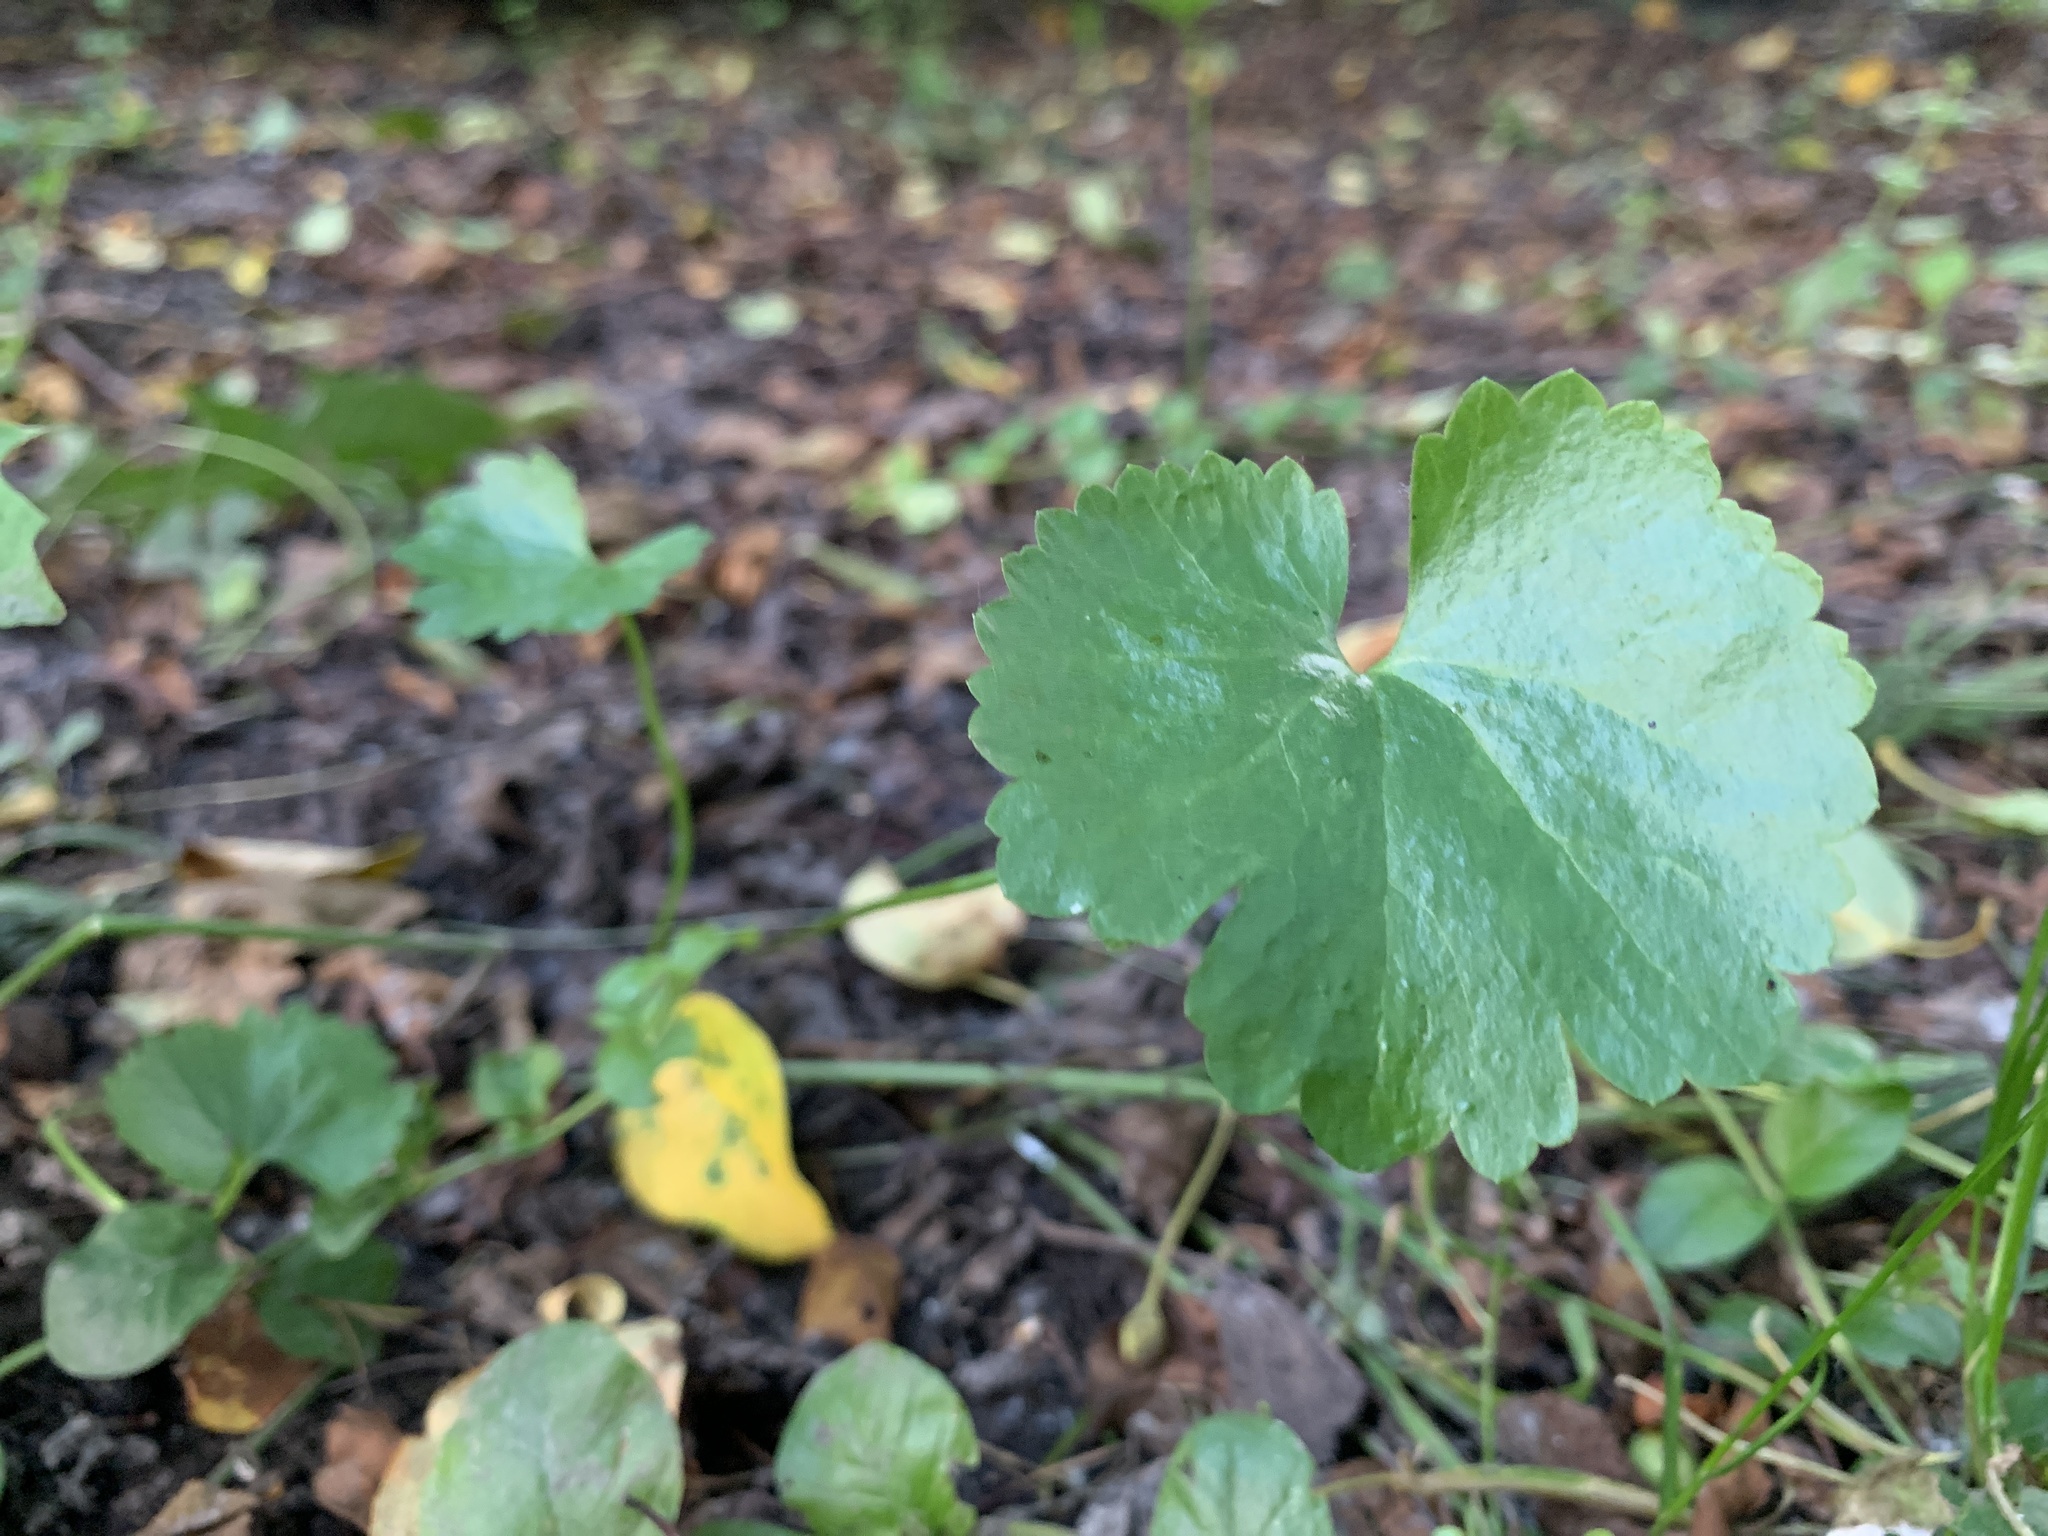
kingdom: Plantae
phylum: Tracheophyta
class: Magnoliopsida
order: Ranunculales
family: Ranunculaceae
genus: Ranunculus
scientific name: Ranunculus cassubicus
